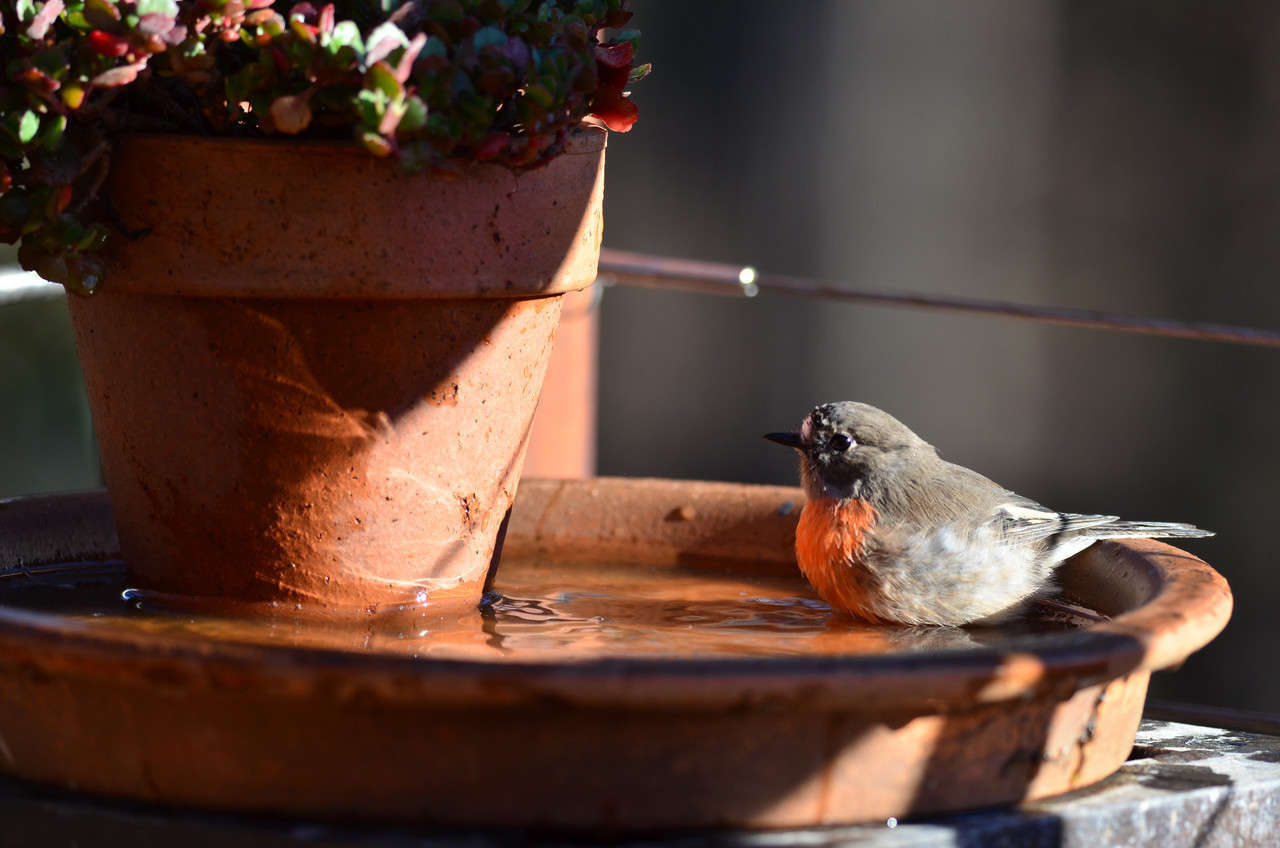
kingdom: Animalia
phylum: Chordata
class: Aves
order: Passeriformes
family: Petroicidae
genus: Petroica
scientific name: Petroica boodang
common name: Scarlet robin
